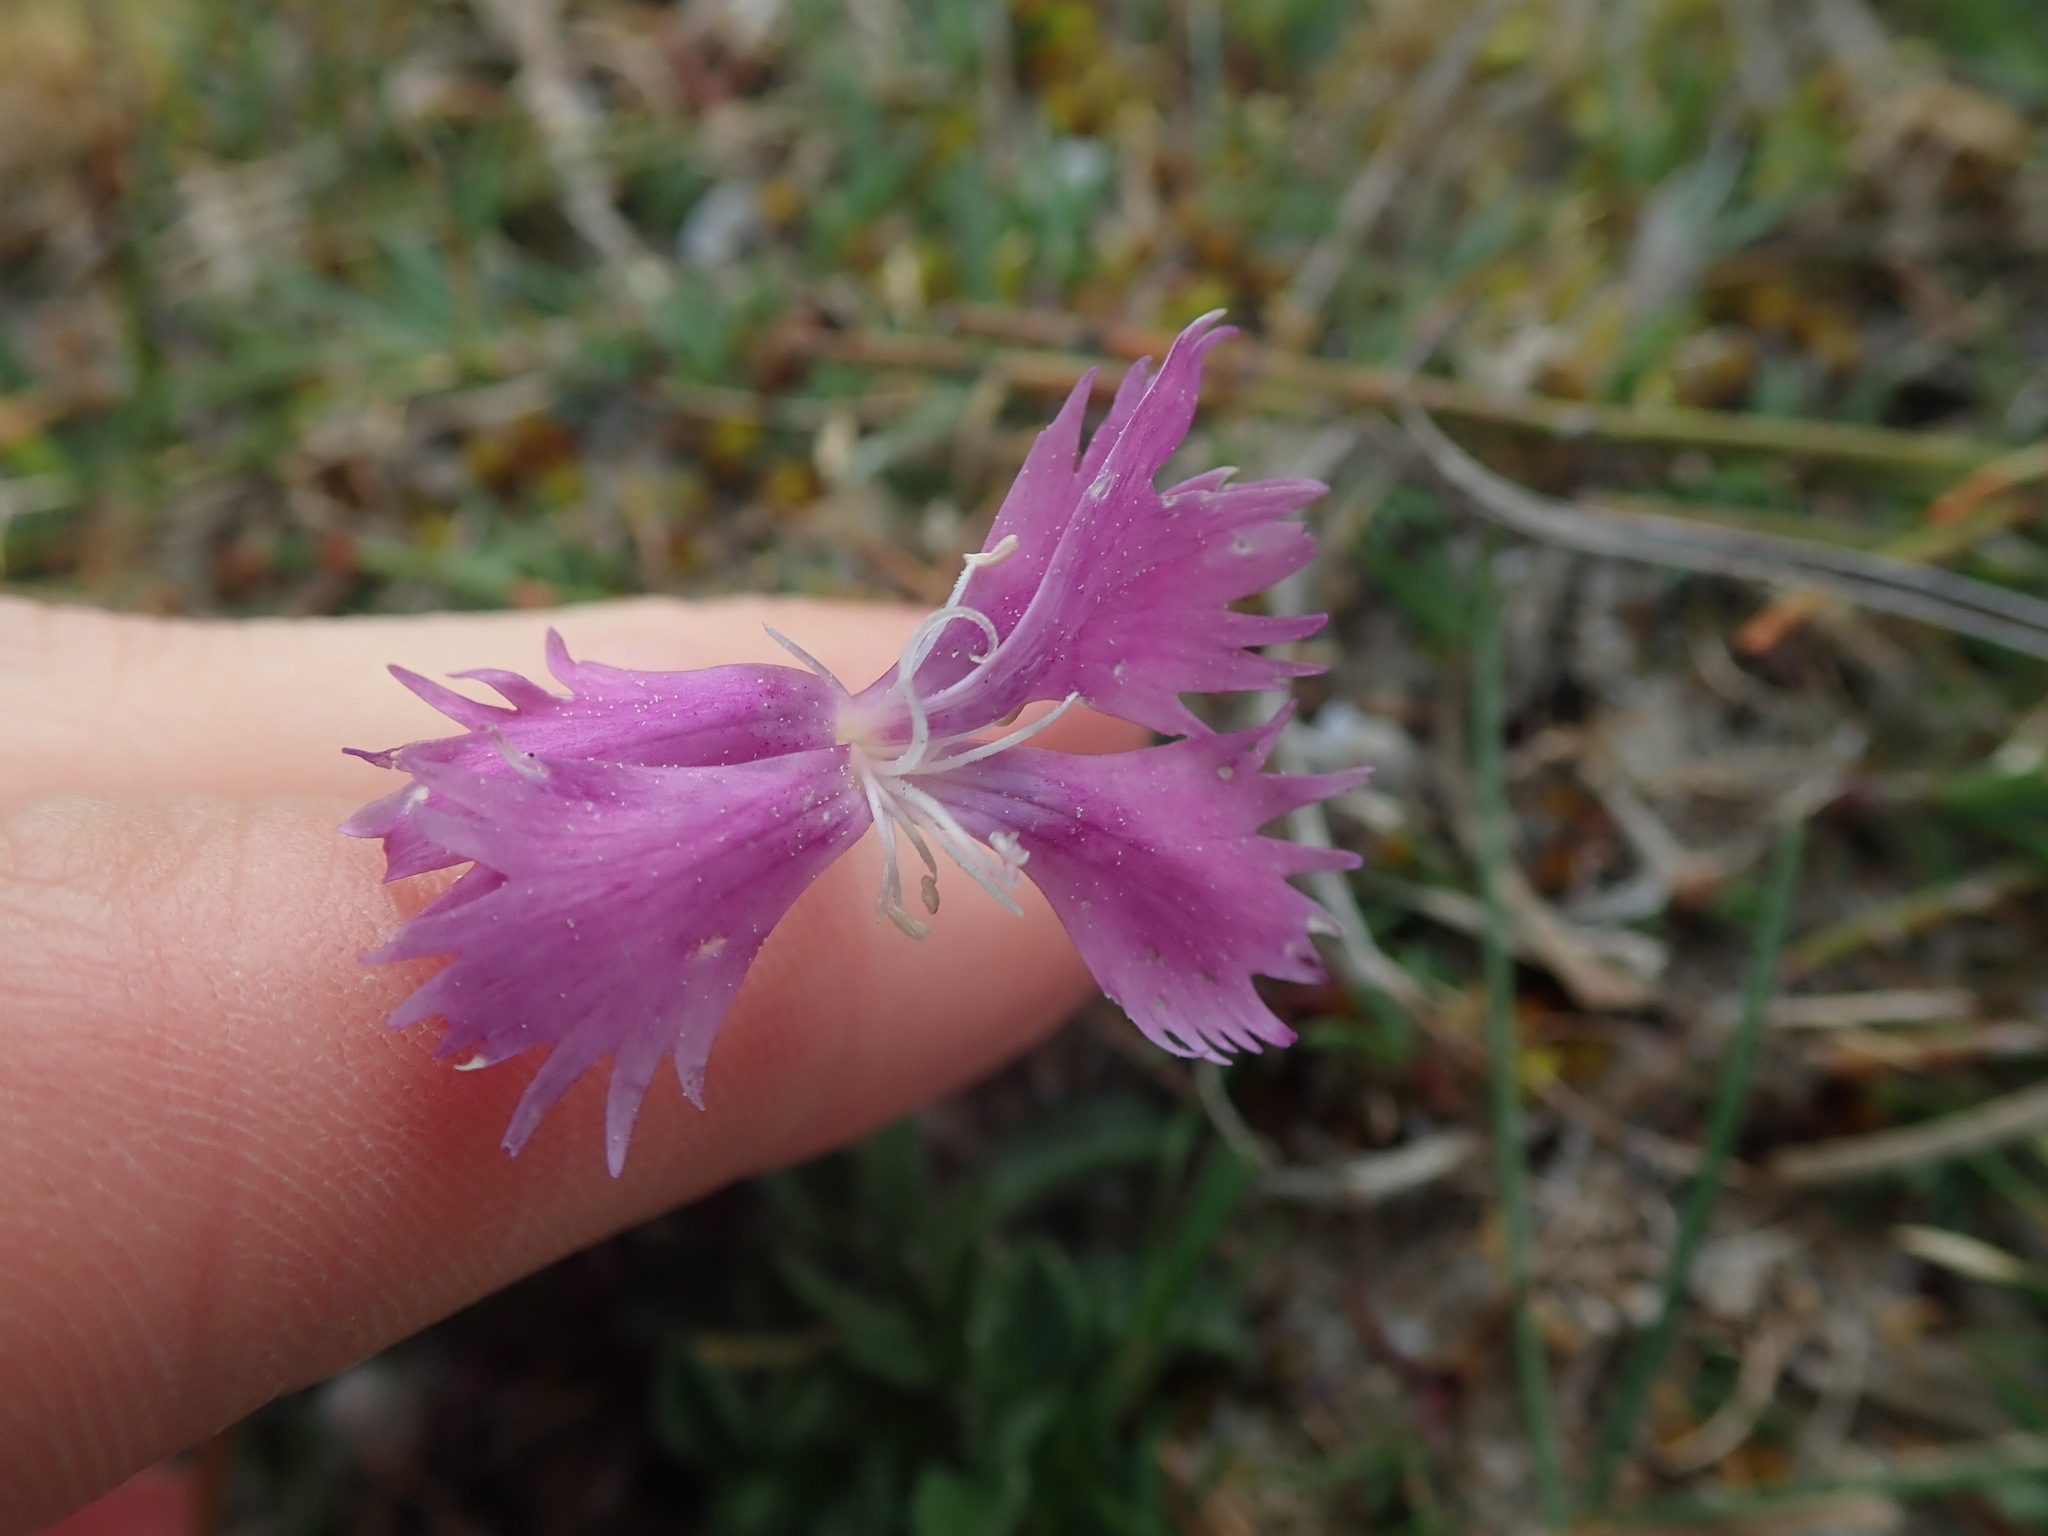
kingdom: Plantae
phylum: Tracheophyta
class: Magnoliopsida
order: Caryophyllales
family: Caryophyllaceae
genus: Dianthus
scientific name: Dianthus gallicus
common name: Jersey pink
